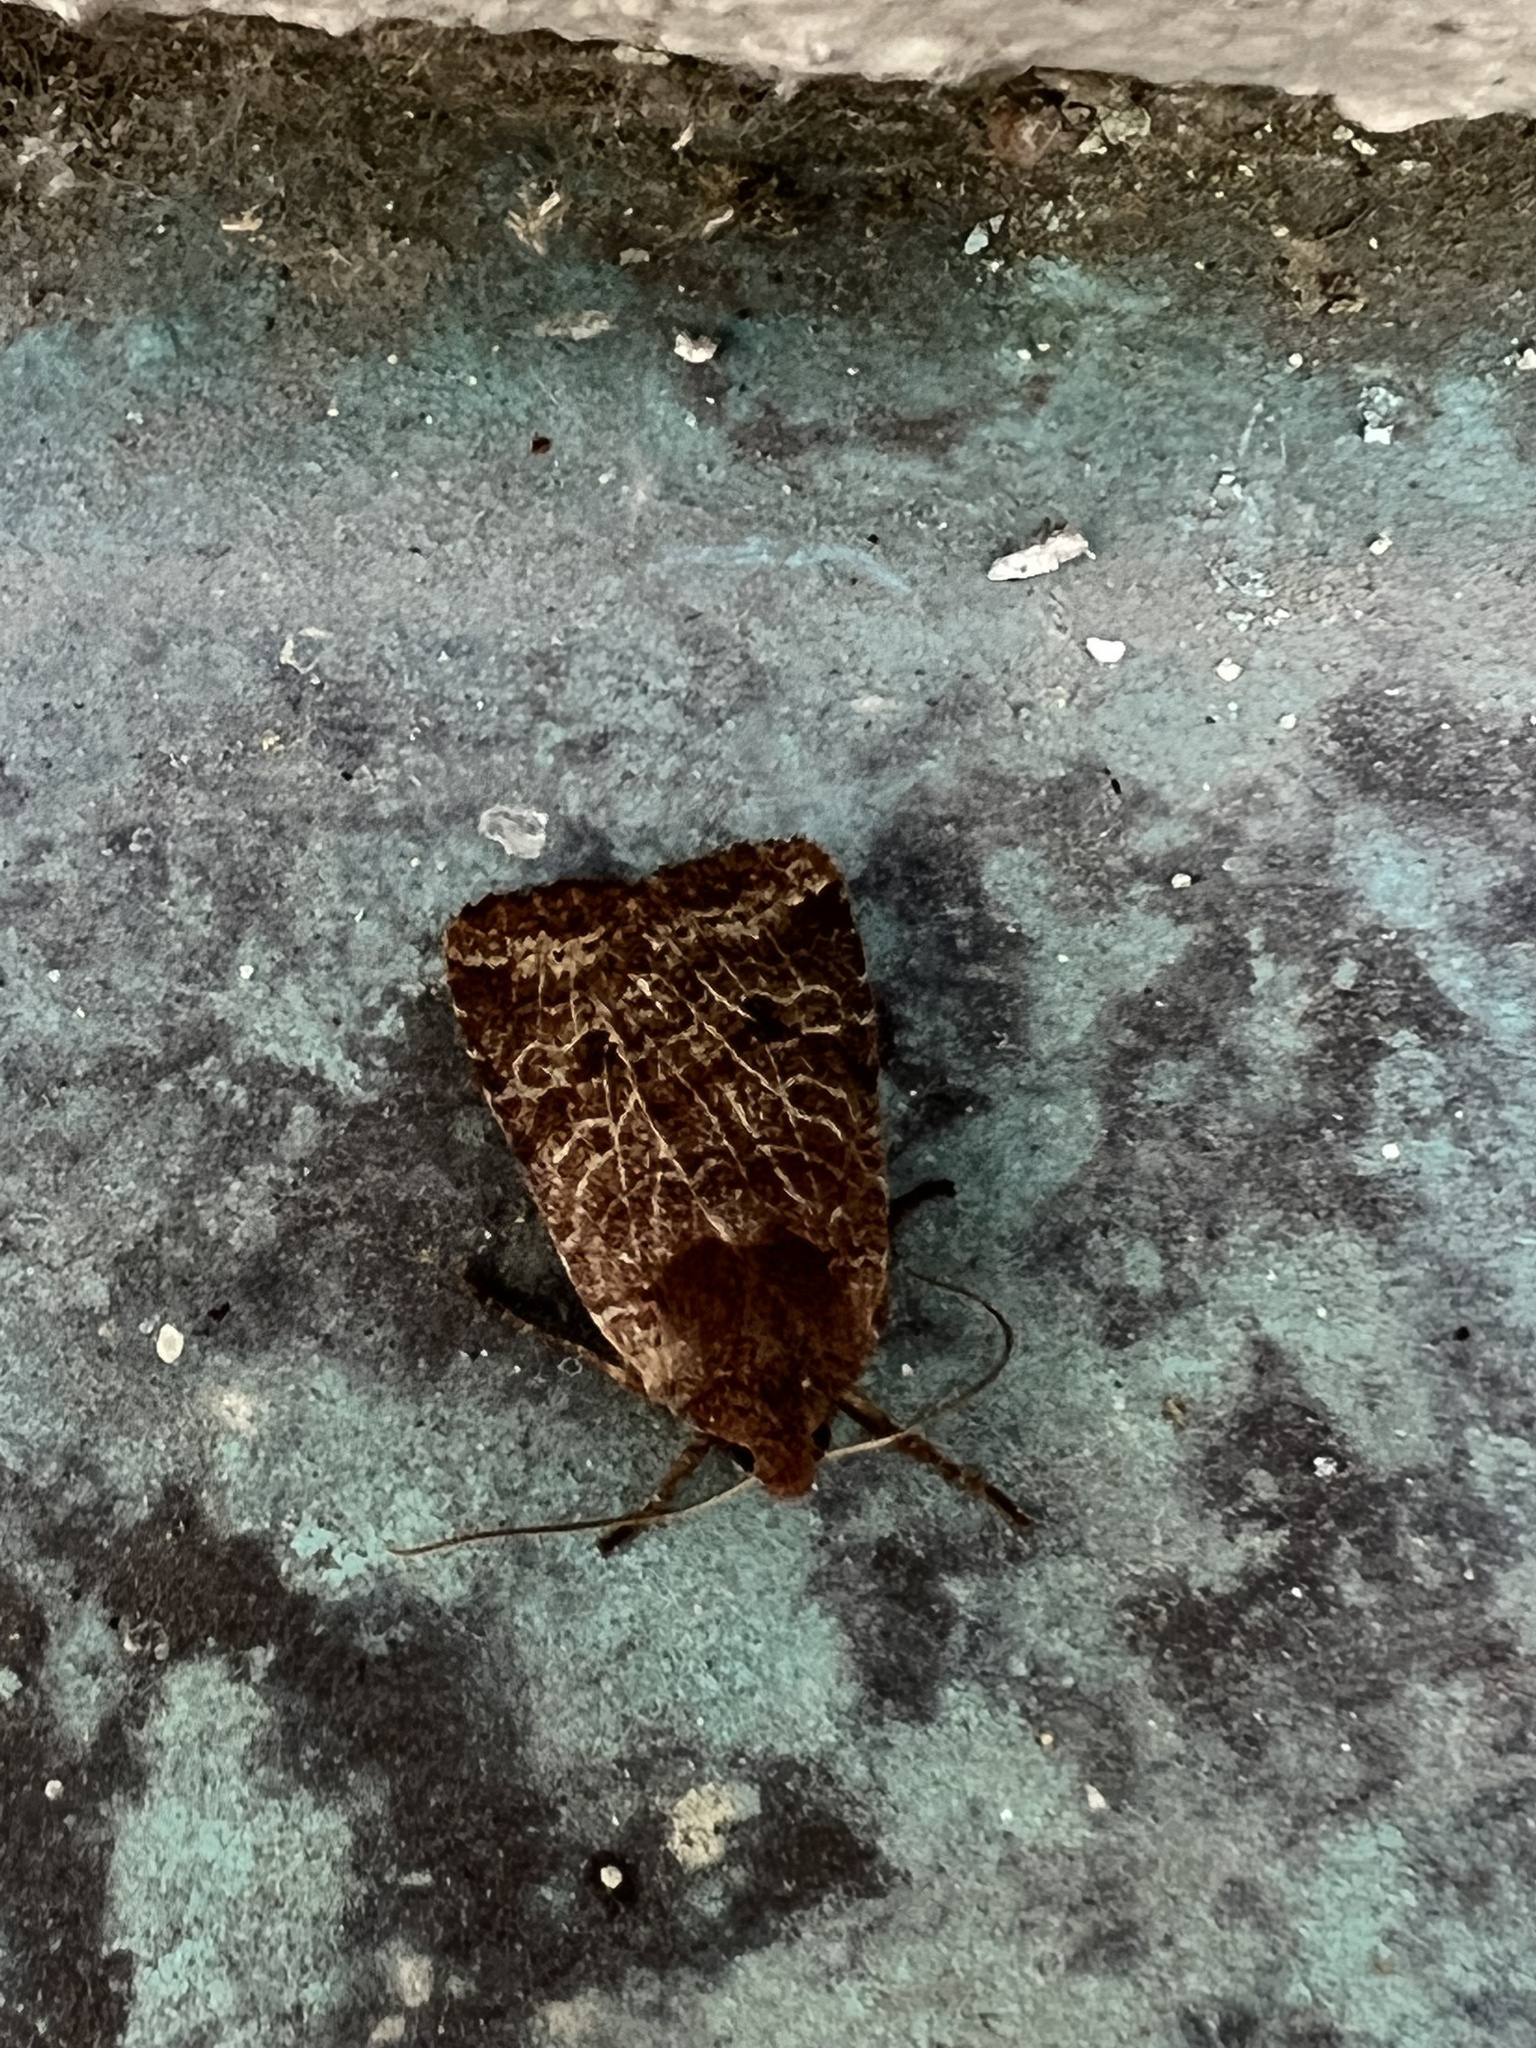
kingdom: Animalia
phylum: Arthropoda
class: Insecta
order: Lepidoptera
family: Noctuidae
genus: Conistra
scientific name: Conistra vaccinii
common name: Chestnut
